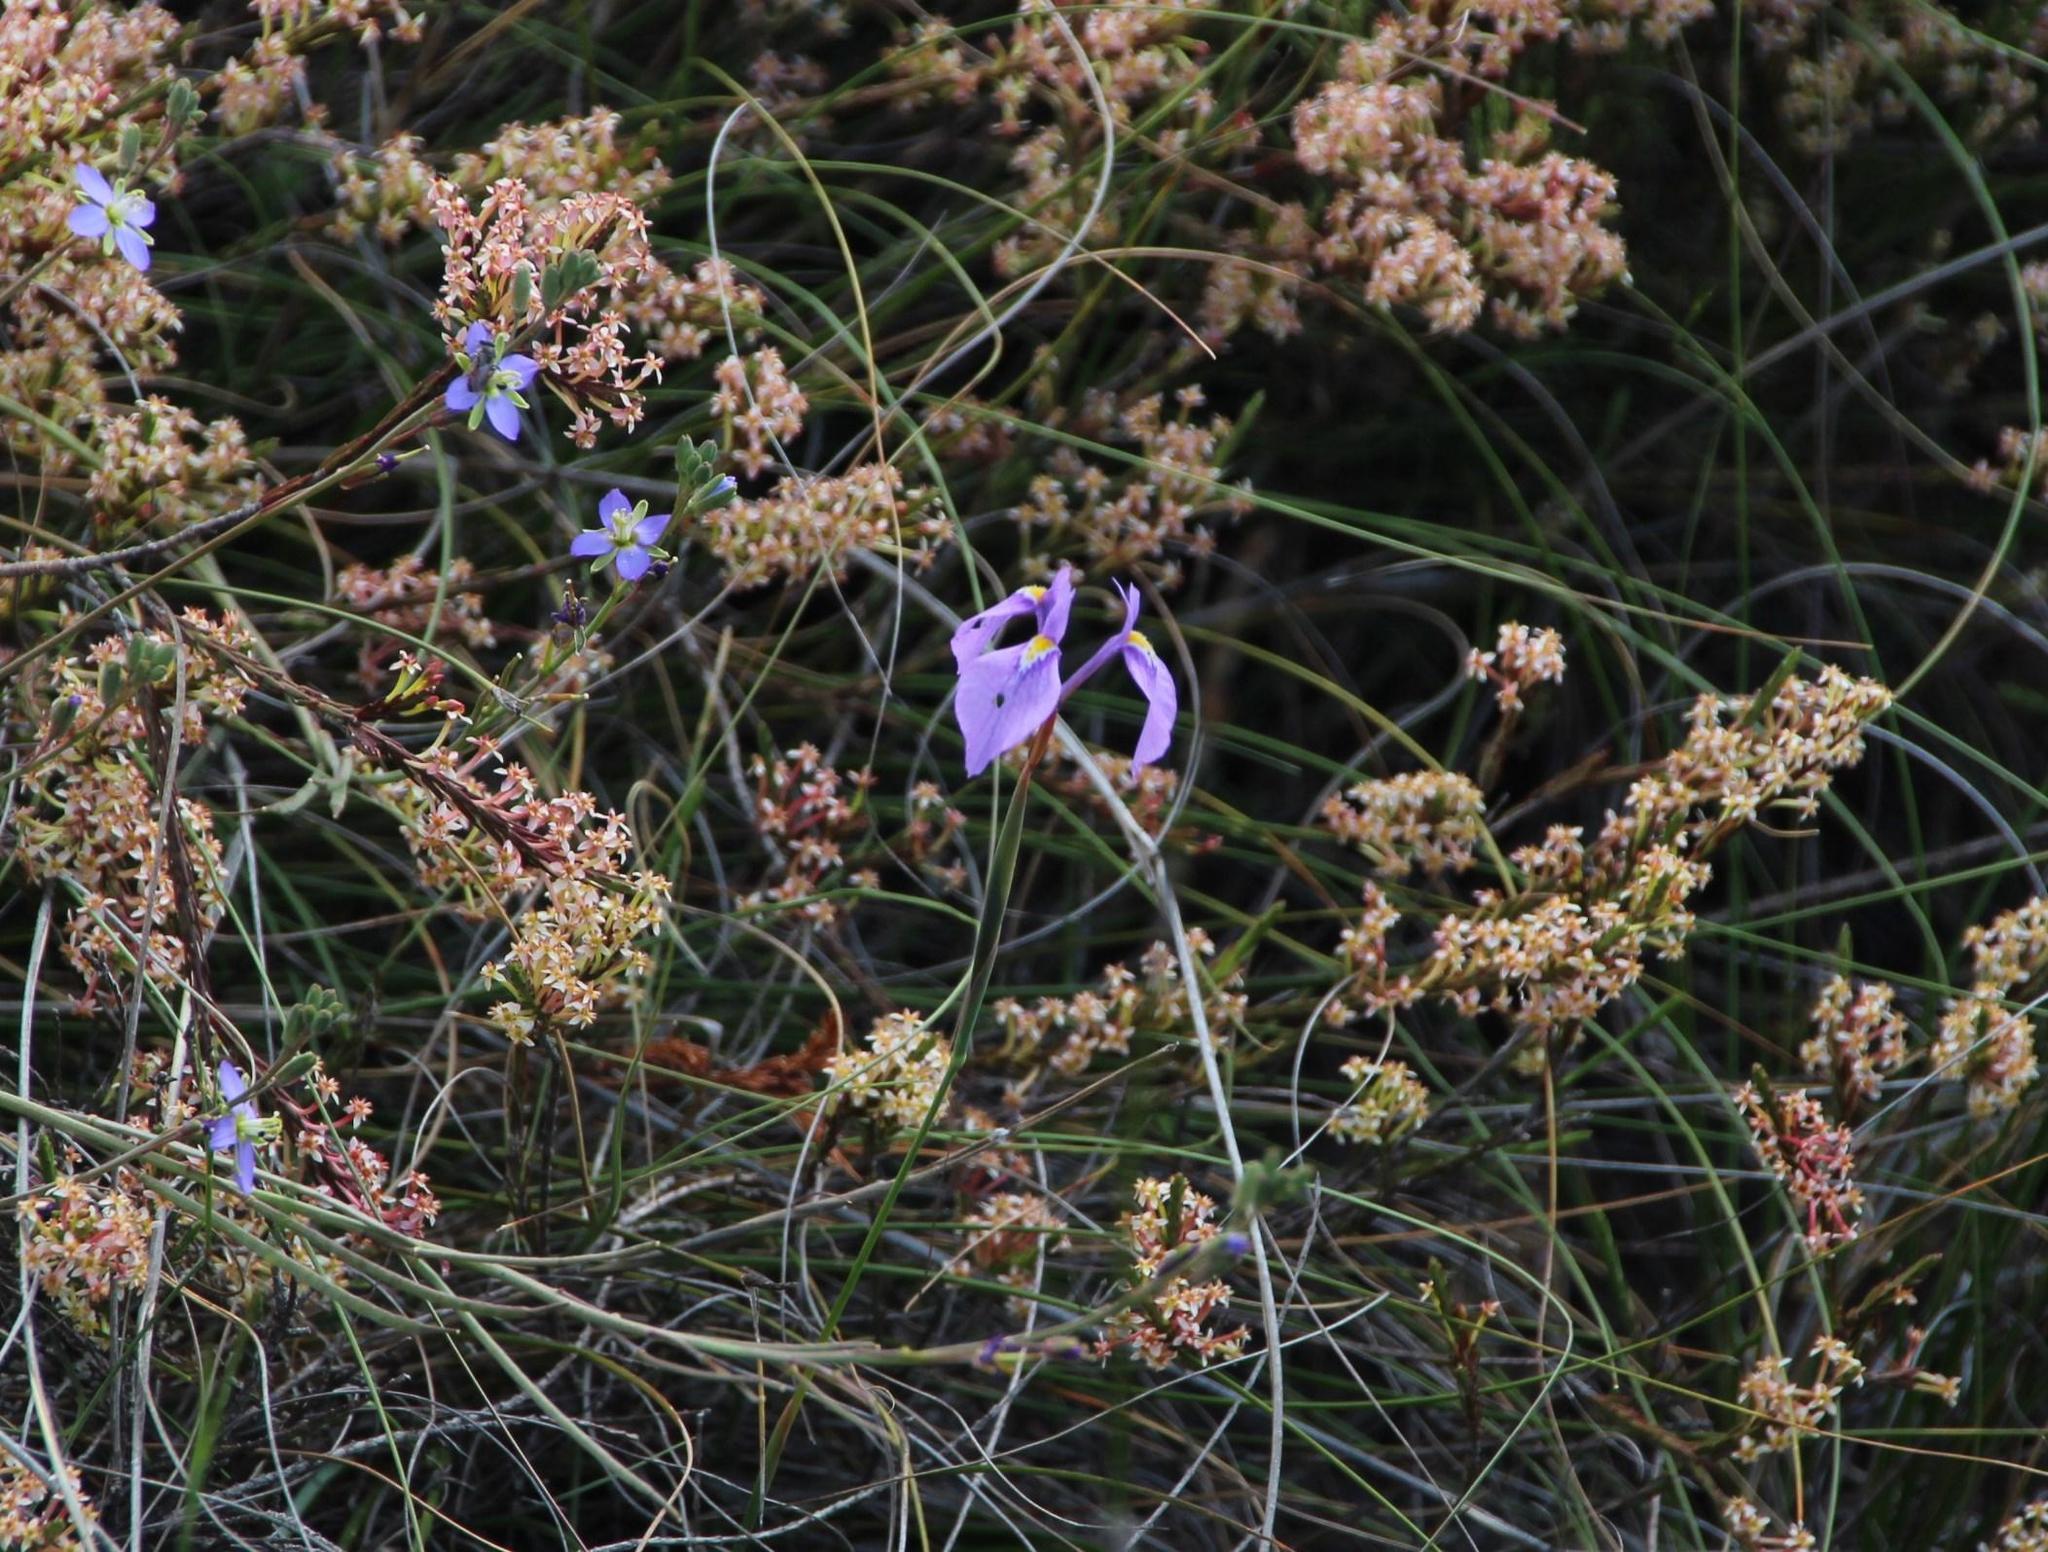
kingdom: Plantae
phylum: Tracheophyta
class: Liliopsida
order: Asparagales
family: Iridaceae
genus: Moraea
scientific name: Moraea tripetala
